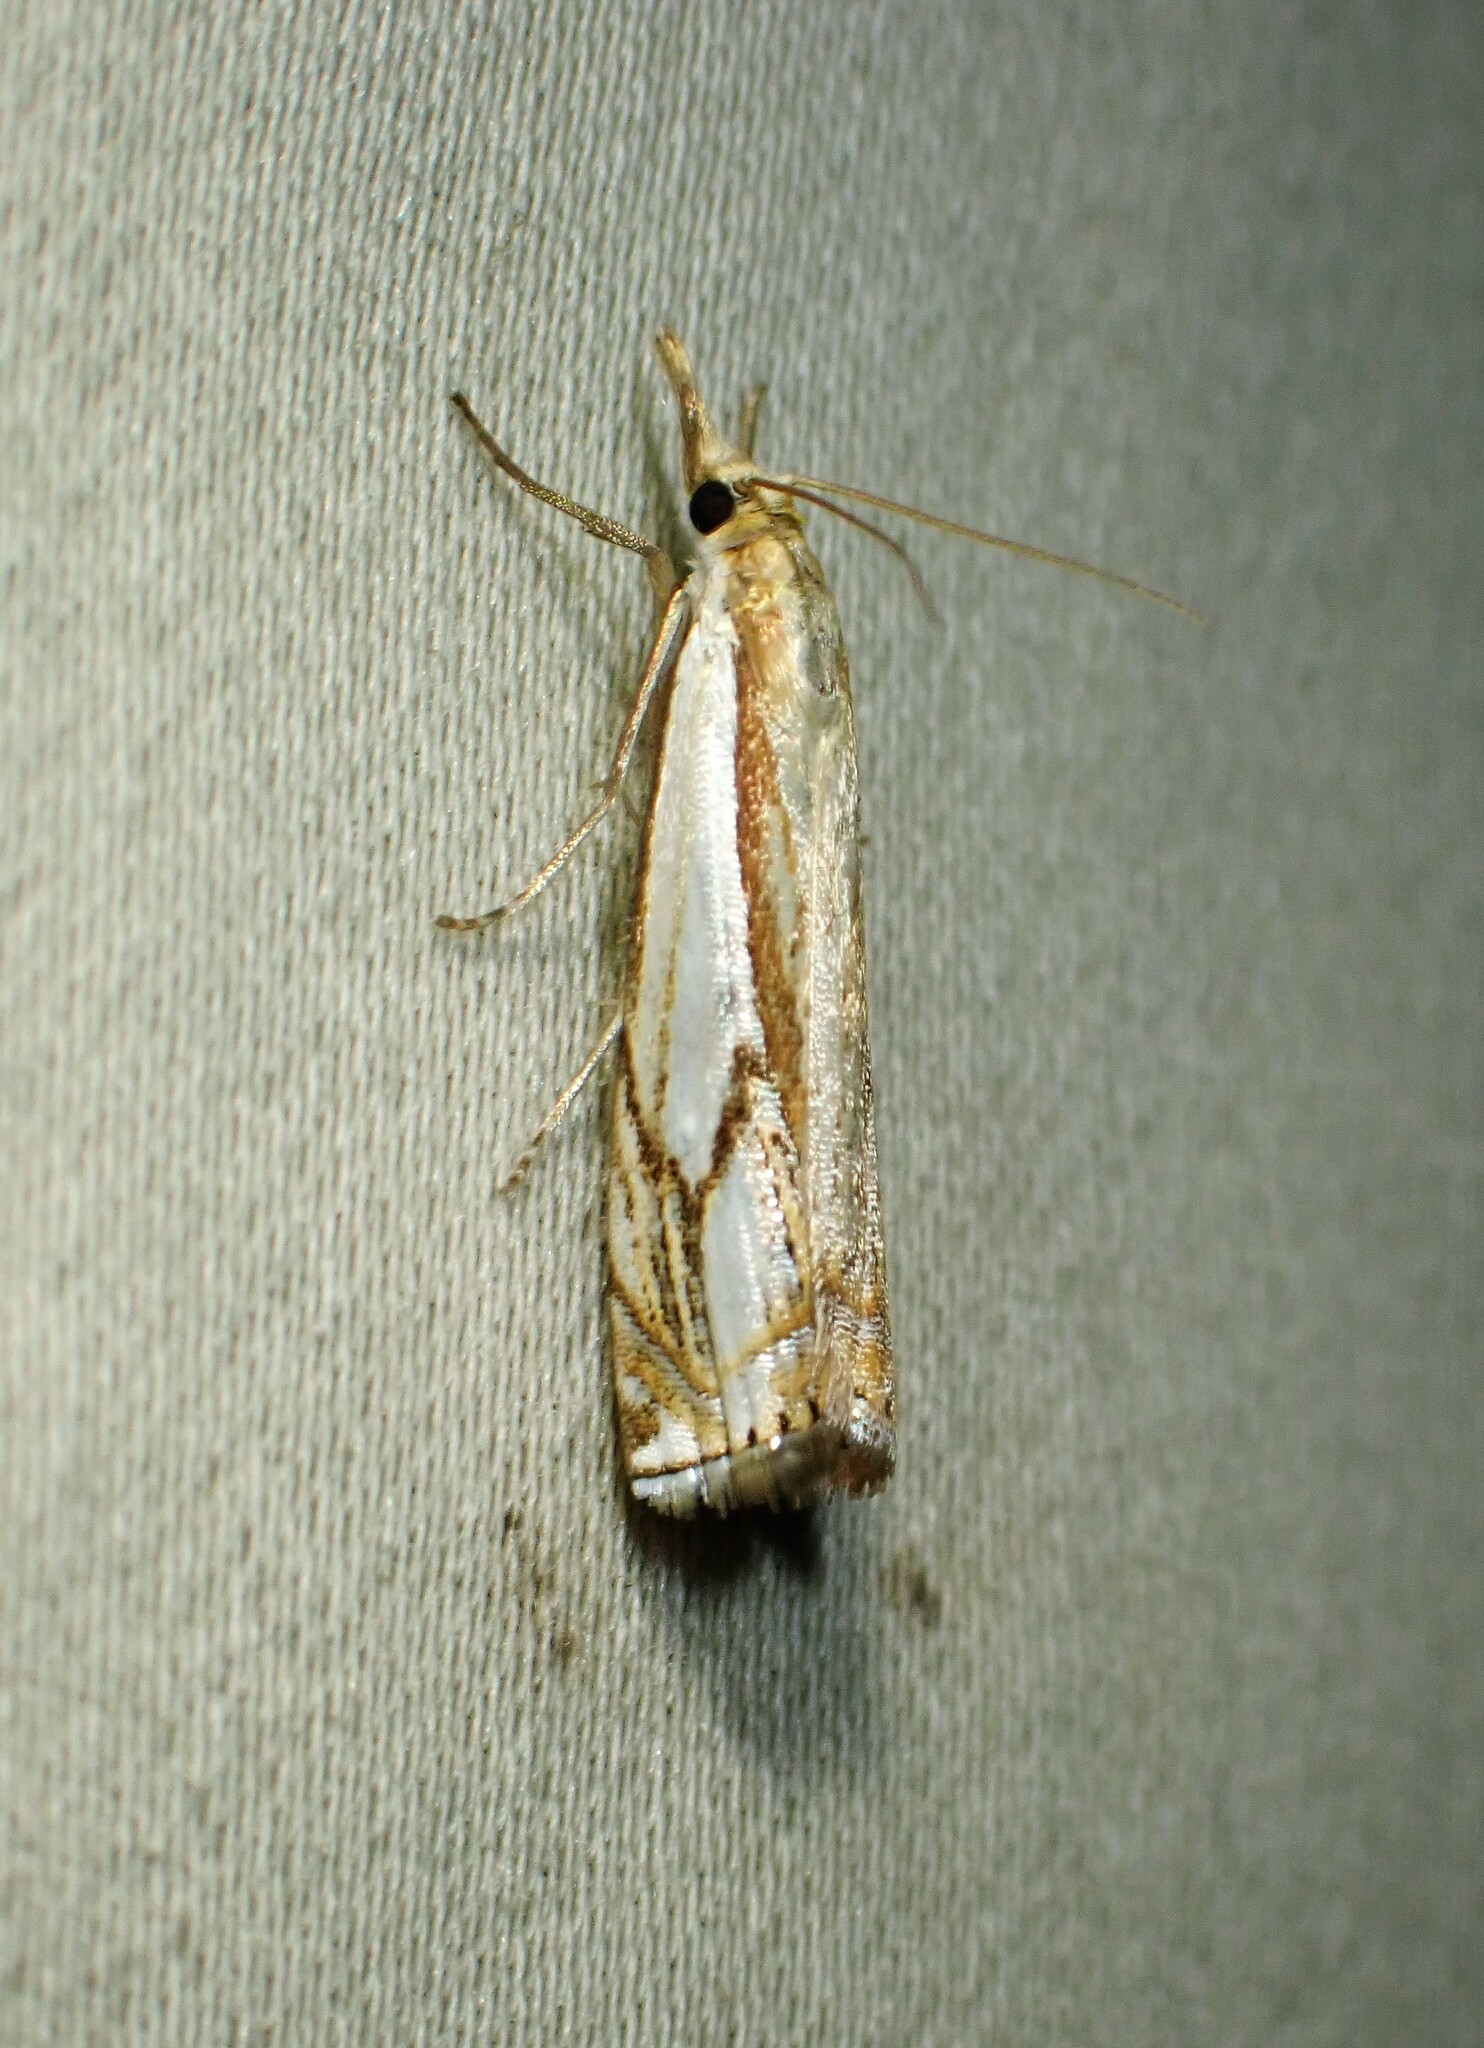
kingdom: Animalia
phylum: Arthropoda
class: Insecta
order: Lepidoptera
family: Crambidae
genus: Crambus
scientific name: Crambus agitatellus
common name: Double-banded grass-veneer
